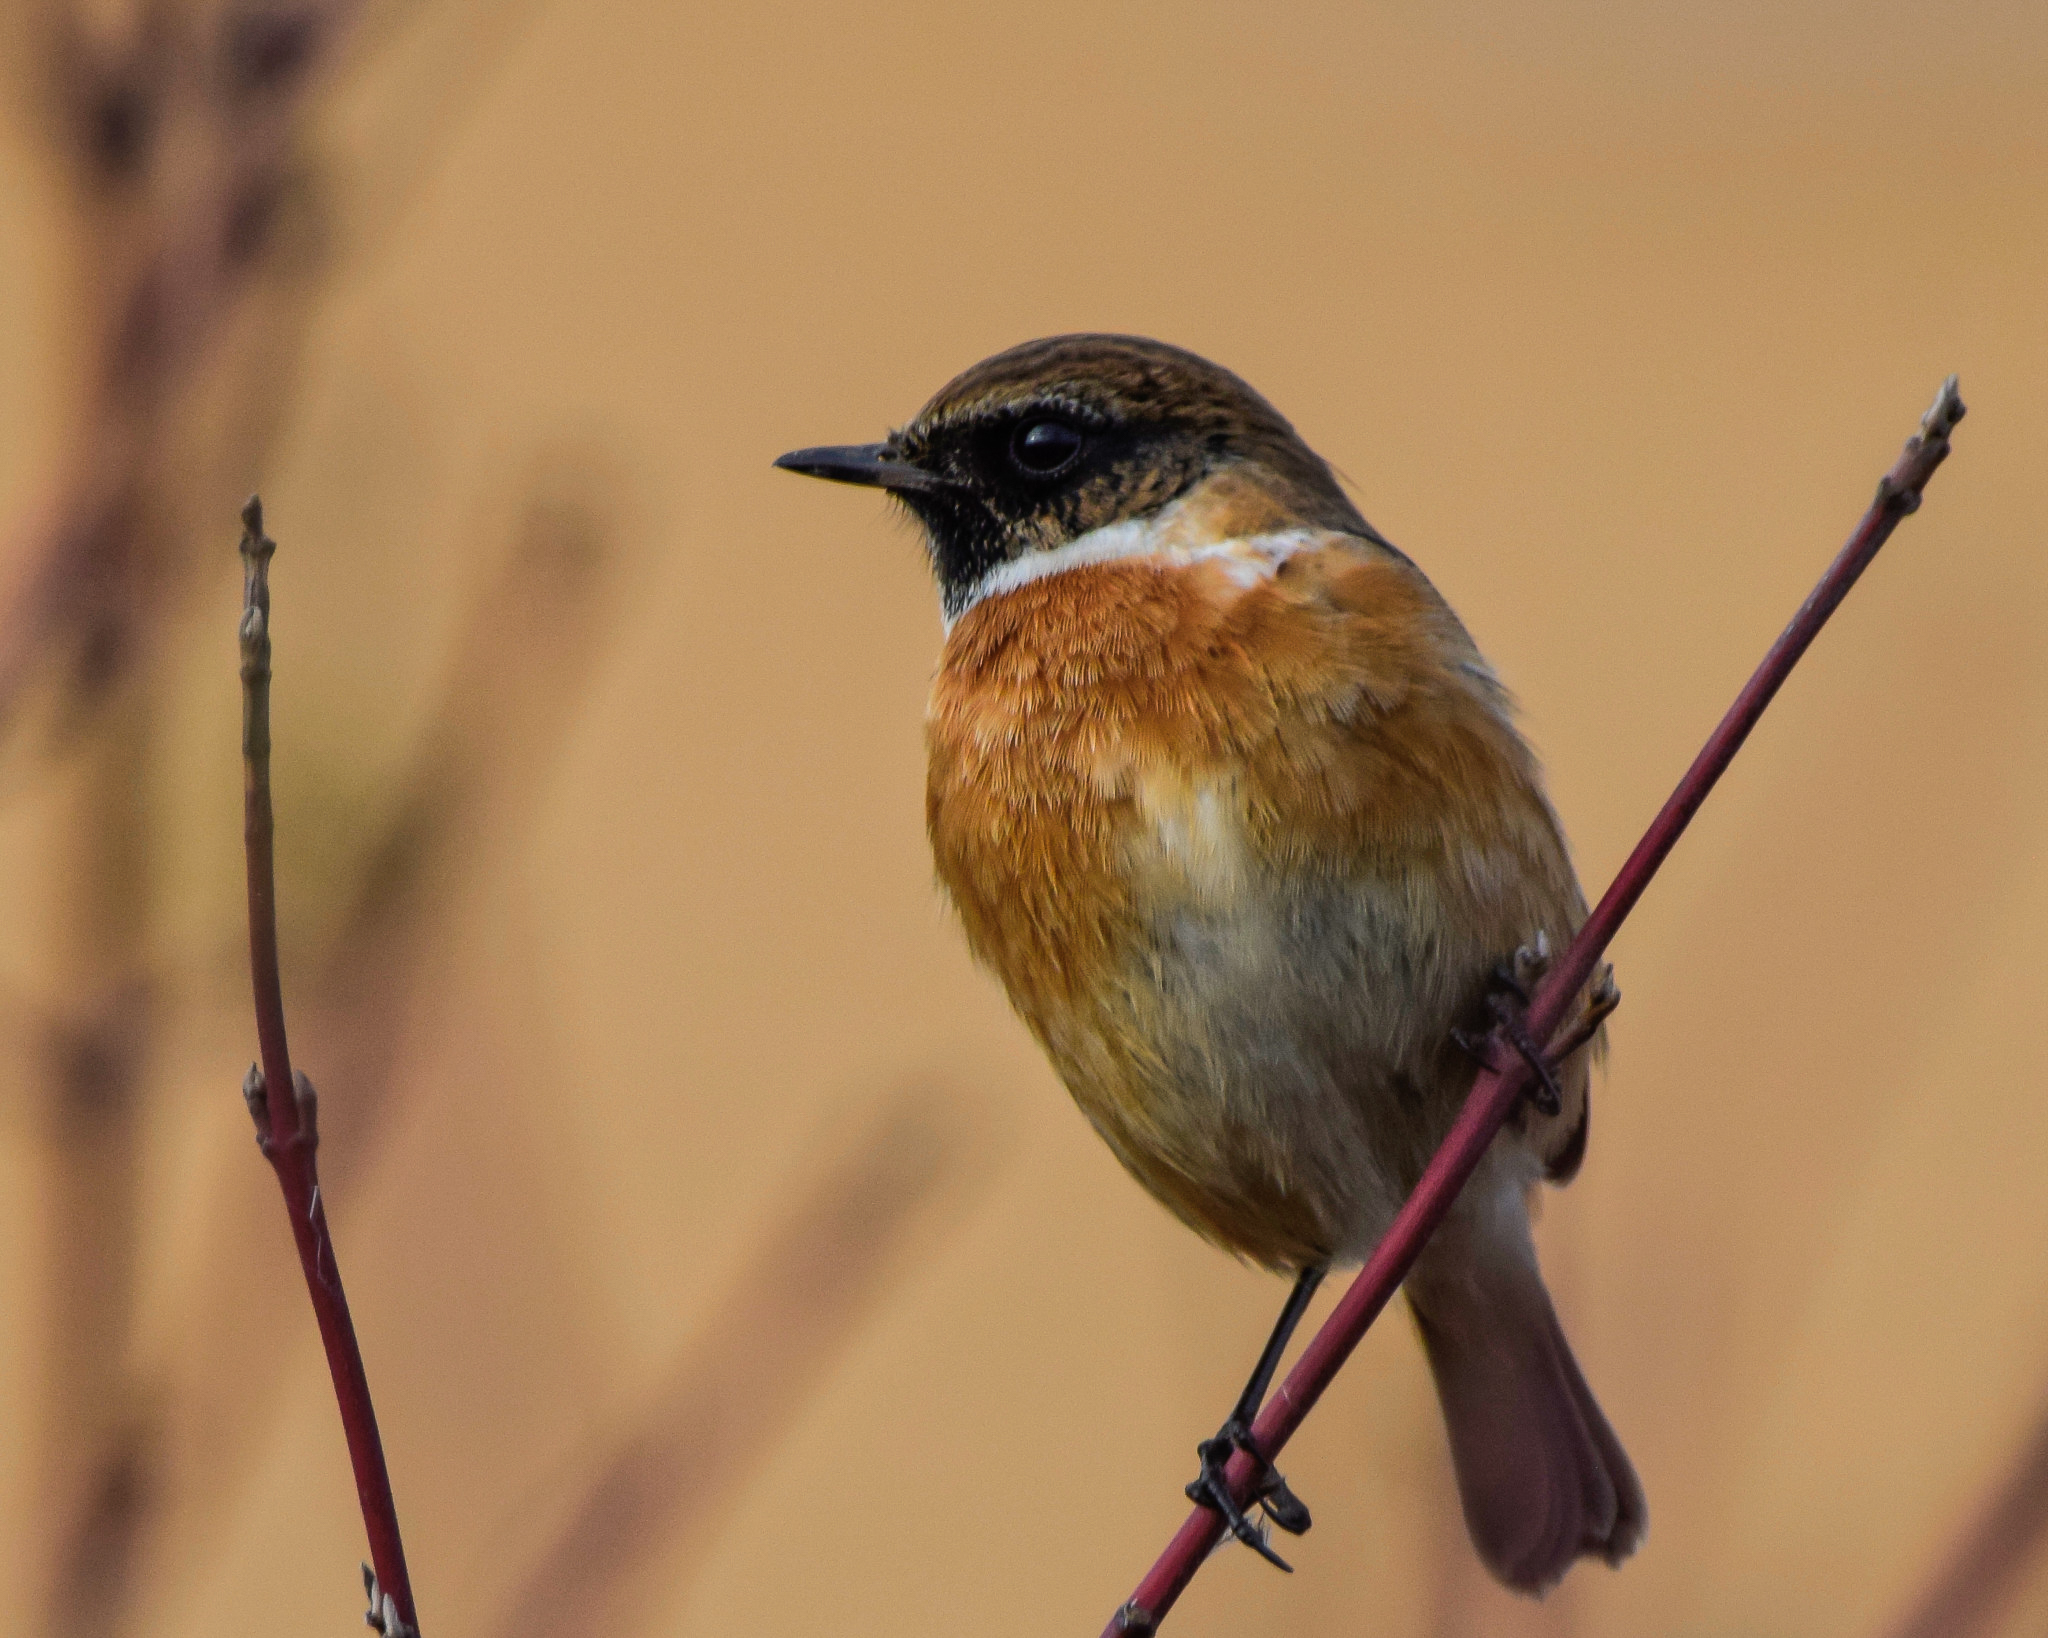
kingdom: Animalia
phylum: Chordata
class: Aves
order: Passeriformes
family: Muscicapidae
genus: Saxicola
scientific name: Saxicola rubicola
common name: European stonechat
